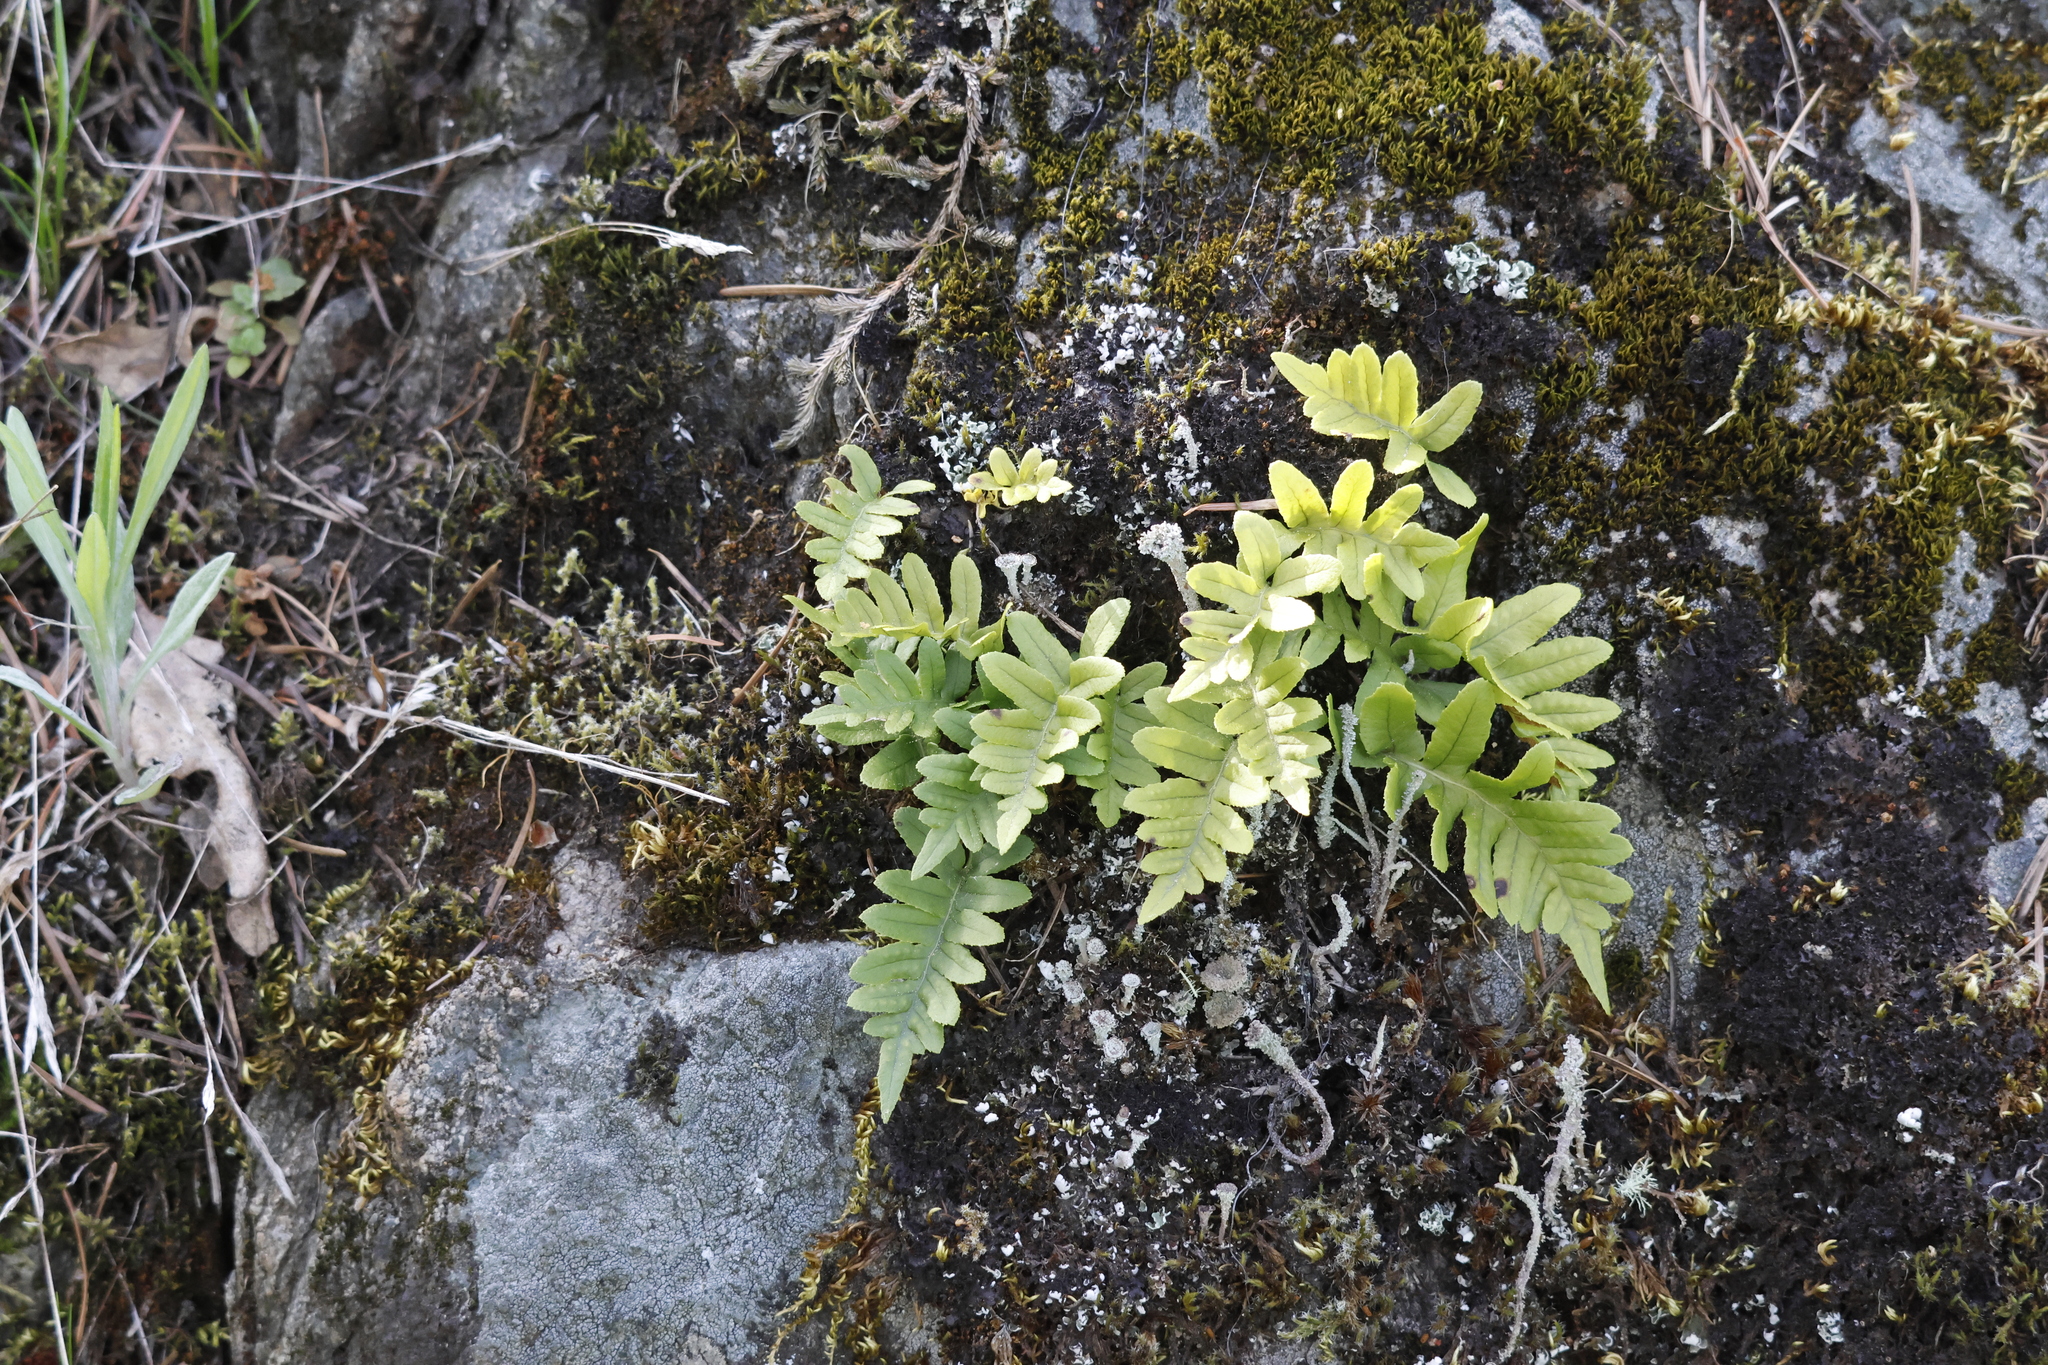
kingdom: Plantae
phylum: Tracheophyta
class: Polypodiopsida
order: Polypodiales
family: Polypodiaceae
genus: Polypodium
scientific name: Polypodium glycyrrhiza
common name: Licorice fern
